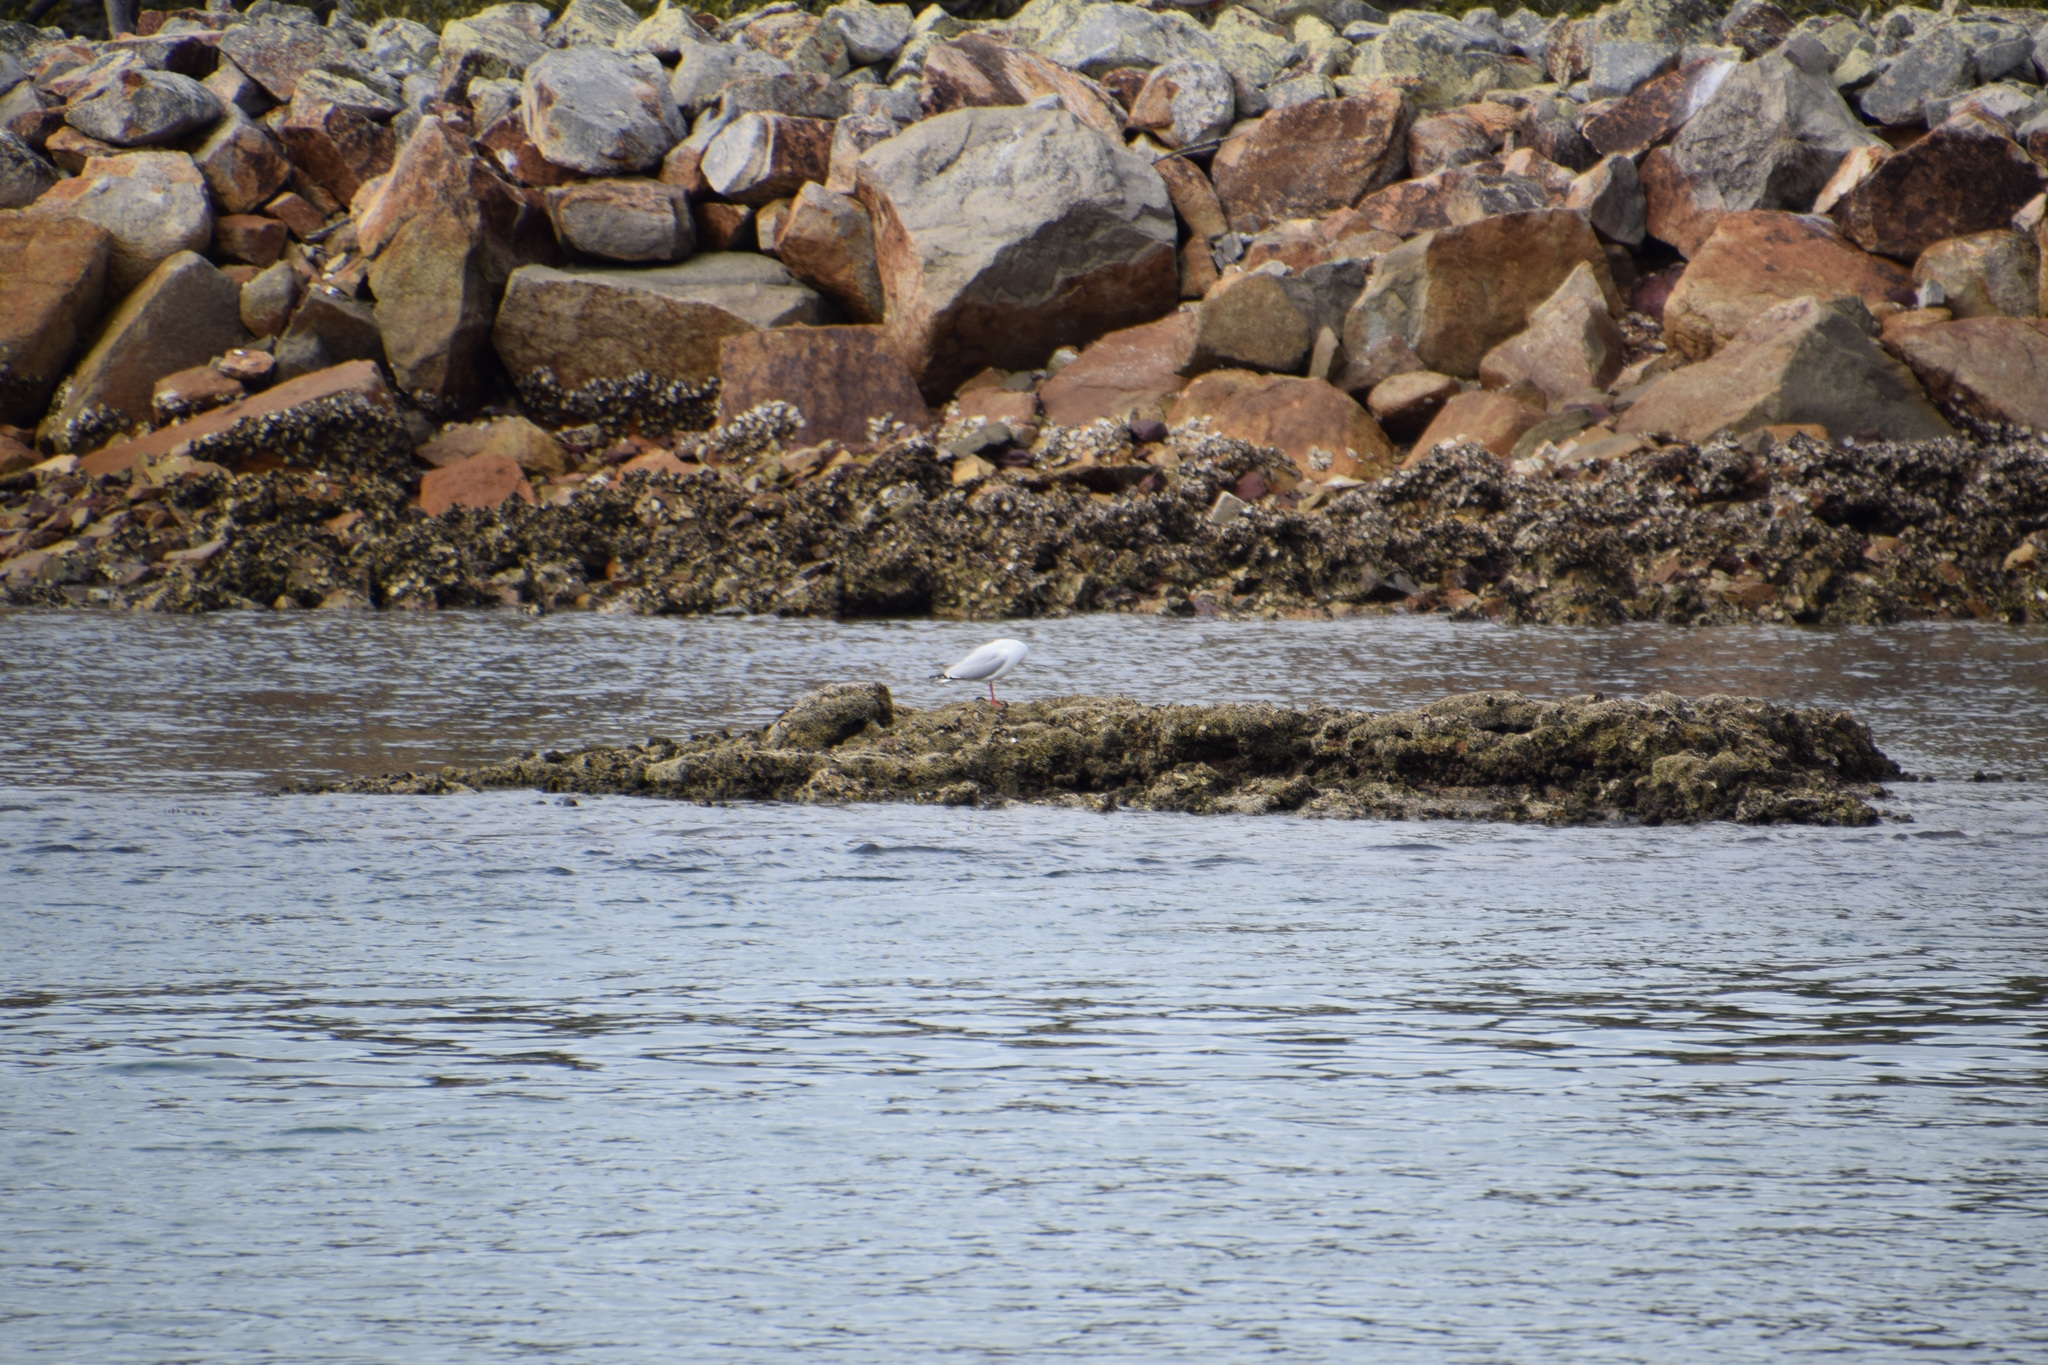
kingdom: Animalia
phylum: Chordata
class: Aves
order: Charadriiformes
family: Laridae
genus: Chroicocephalus
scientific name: Chroicocephalus novaehollandiae
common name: Silver gull
